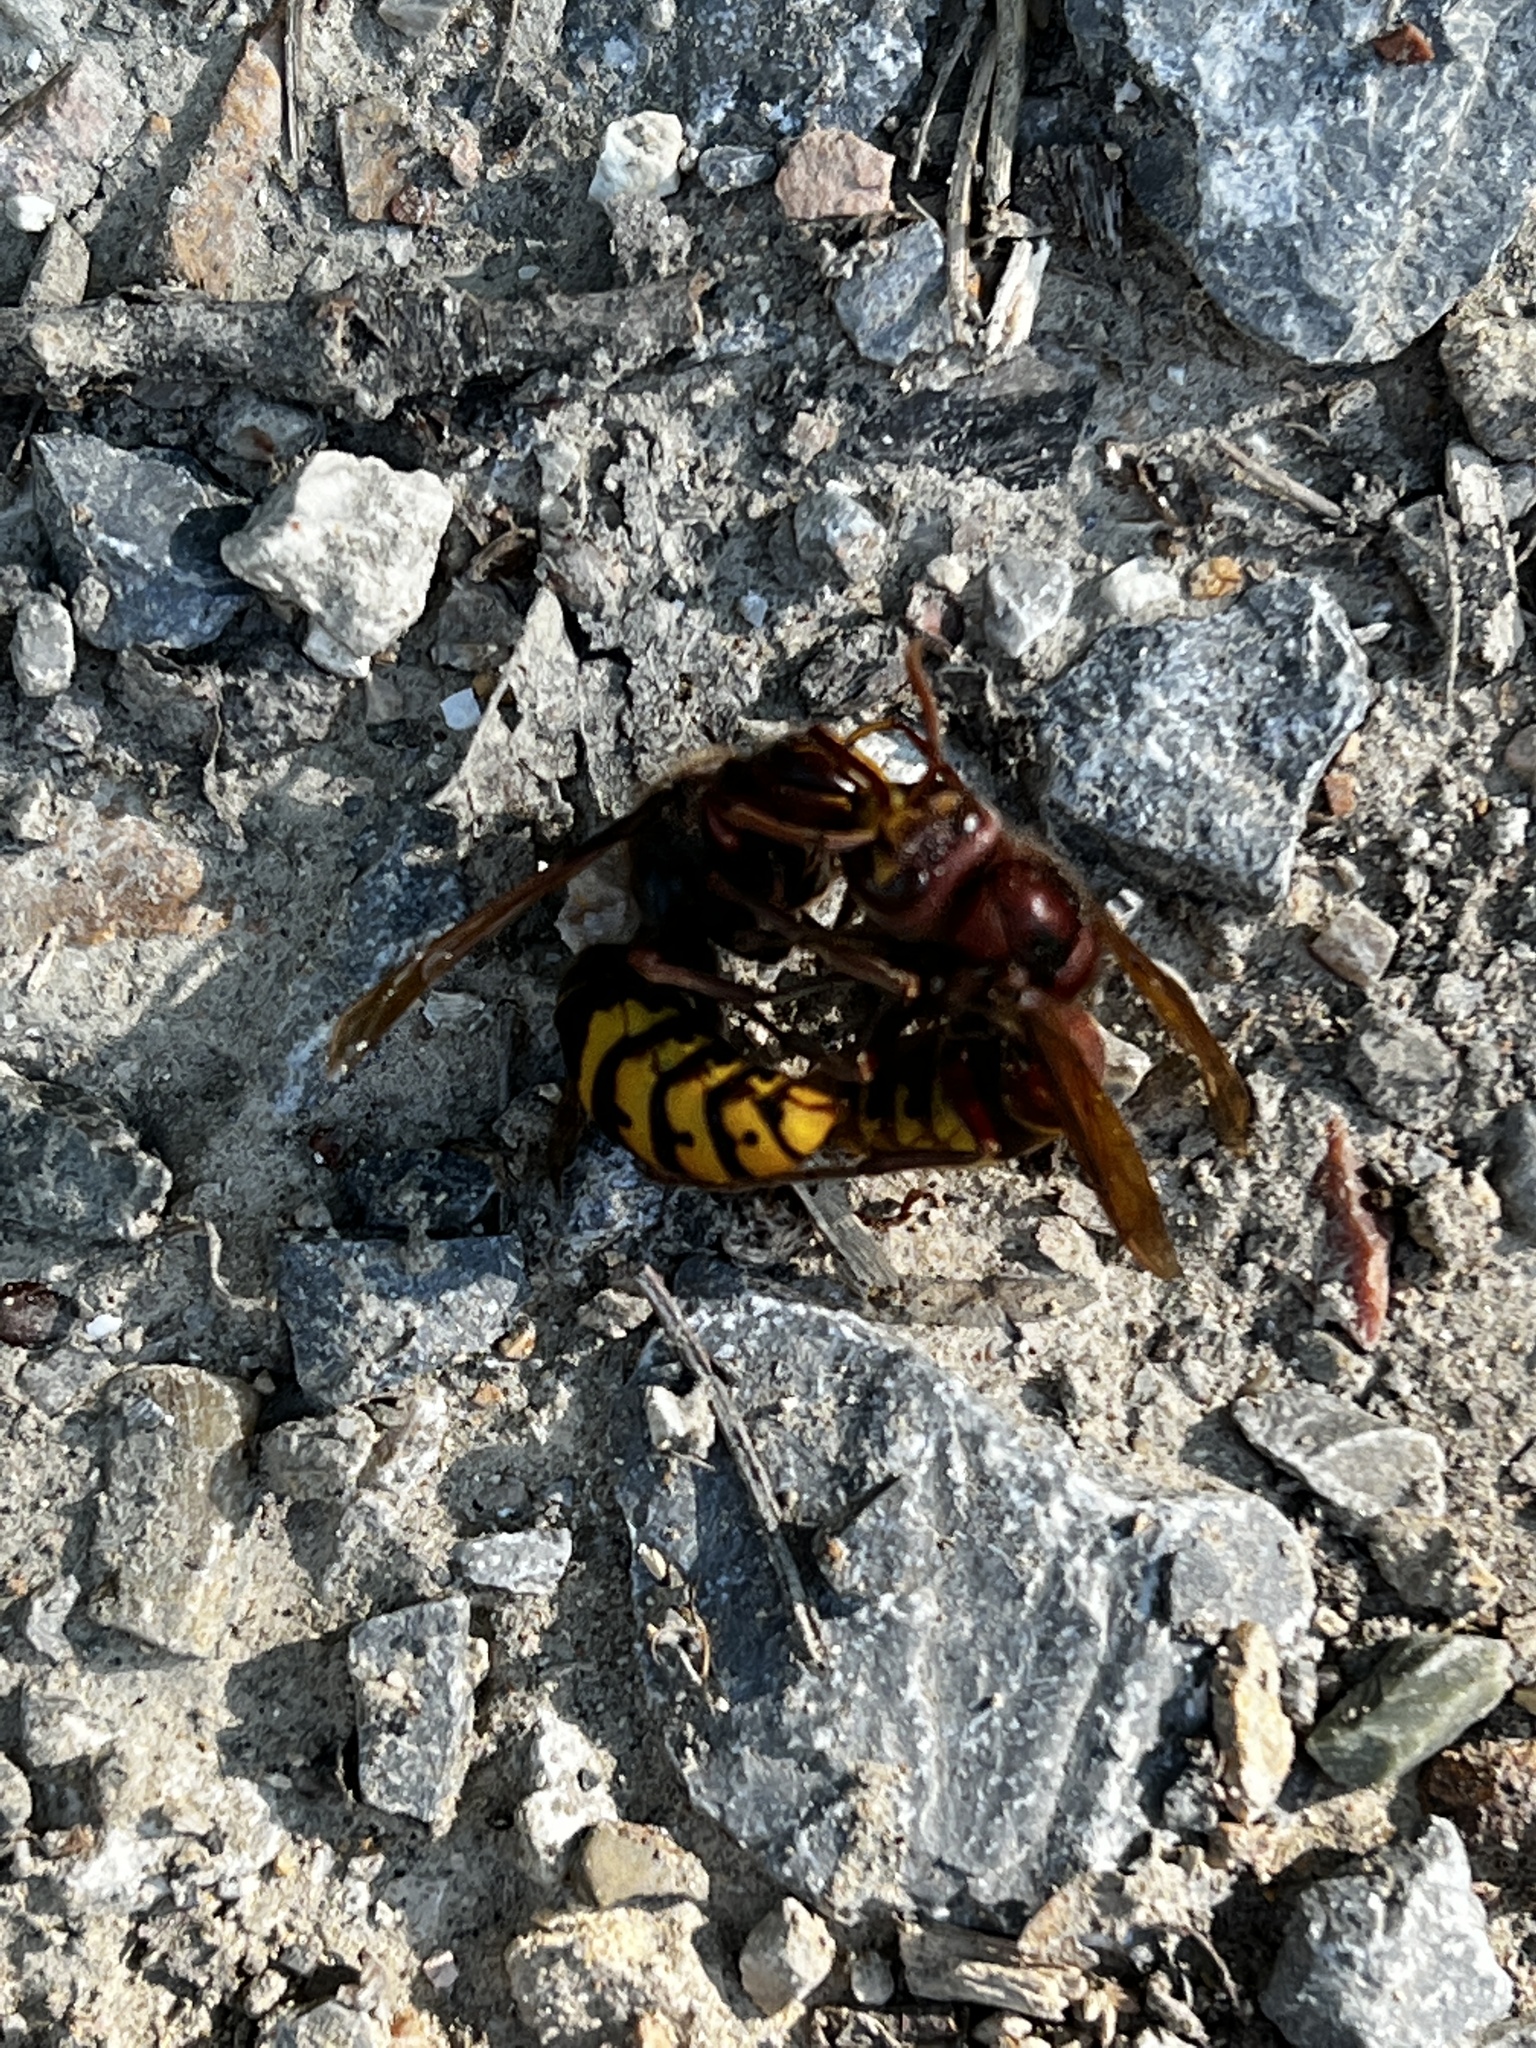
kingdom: Animalia
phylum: Arthropoda
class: Insecta
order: Hymenoptera
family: Vespidae
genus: Vespa
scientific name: Vespa crabro
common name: Hornet
